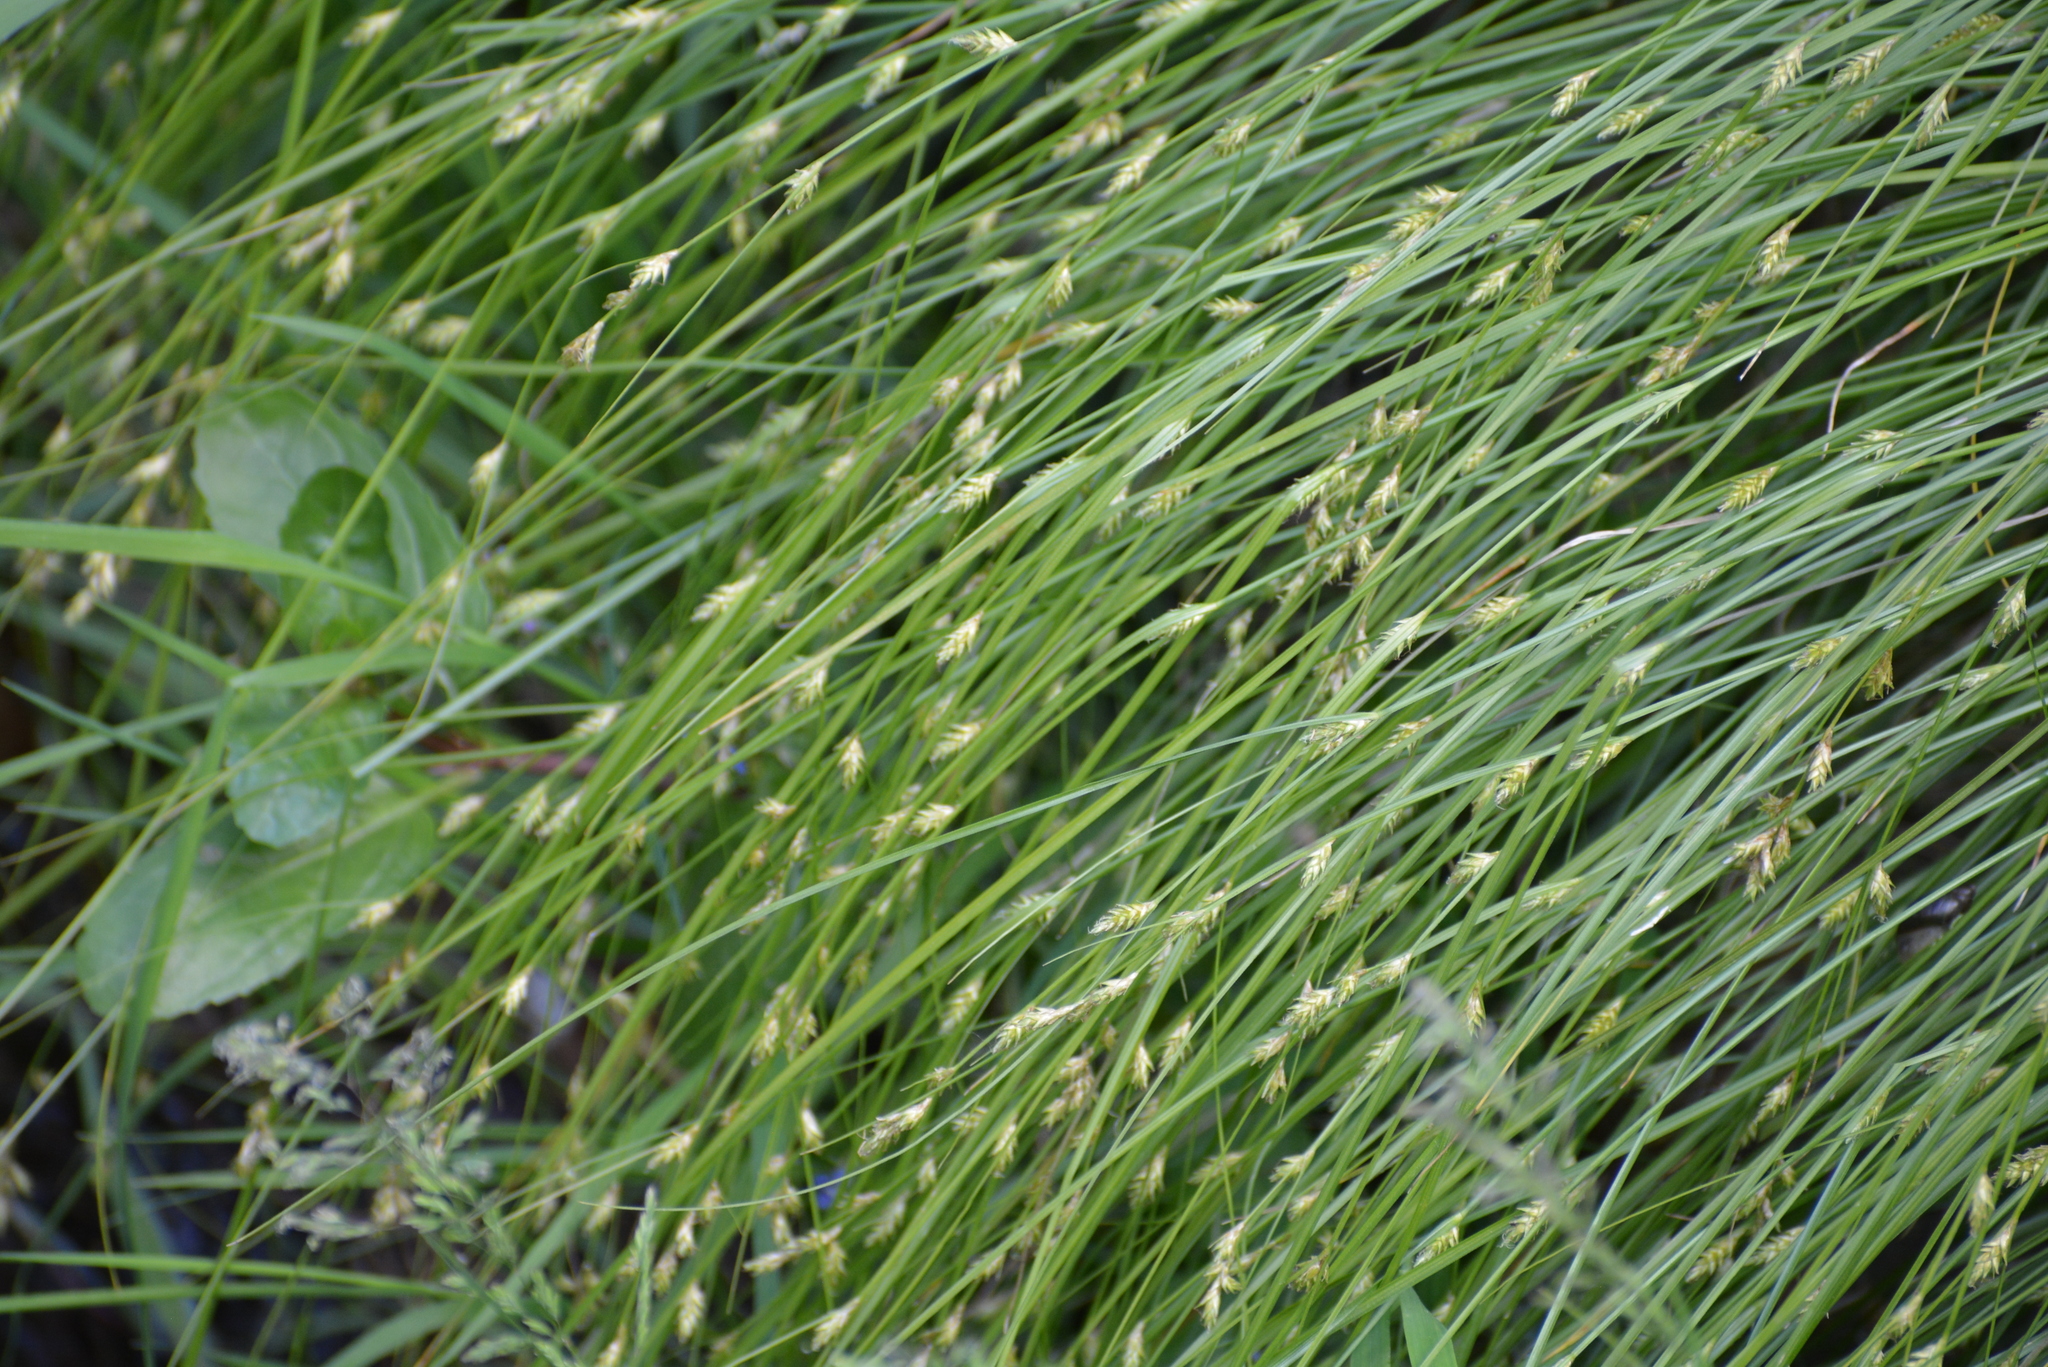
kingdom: Plantae
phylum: Tracheophyta
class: Liliopsida
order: Poales
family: Cyperaceae
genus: Carex
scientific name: Carex remota
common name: Remote sedge
